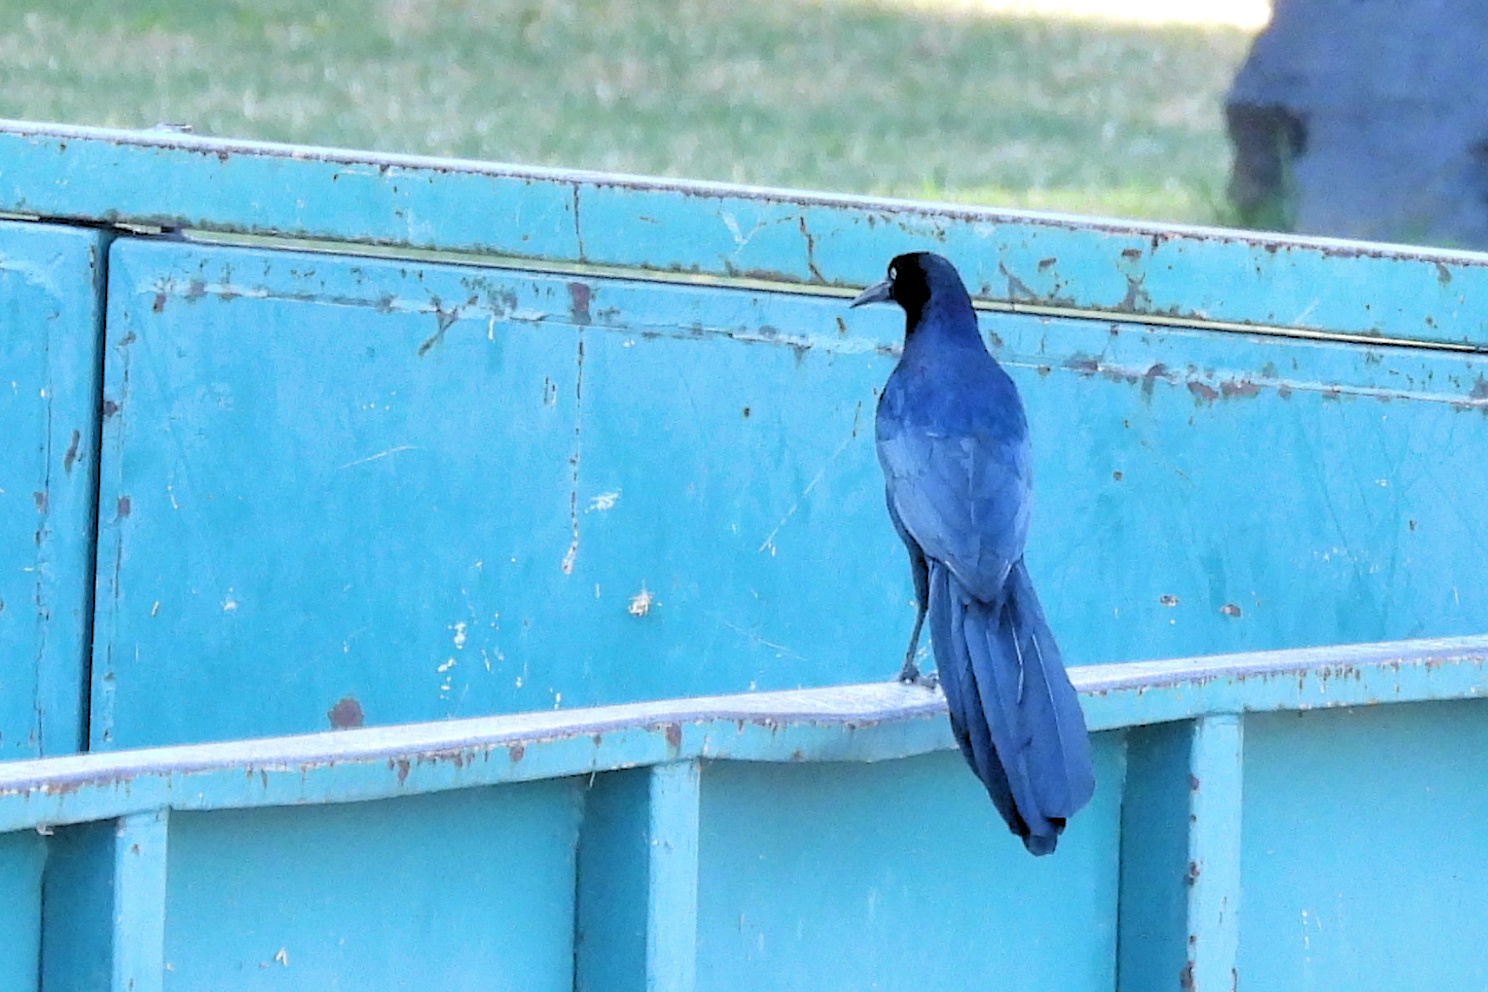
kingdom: Animalia
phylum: Chordata
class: Aves
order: Passeriformes
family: Icteridae
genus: Quiscalus
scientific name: Quiscalus mexicanus
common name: Great-tailed grackle
